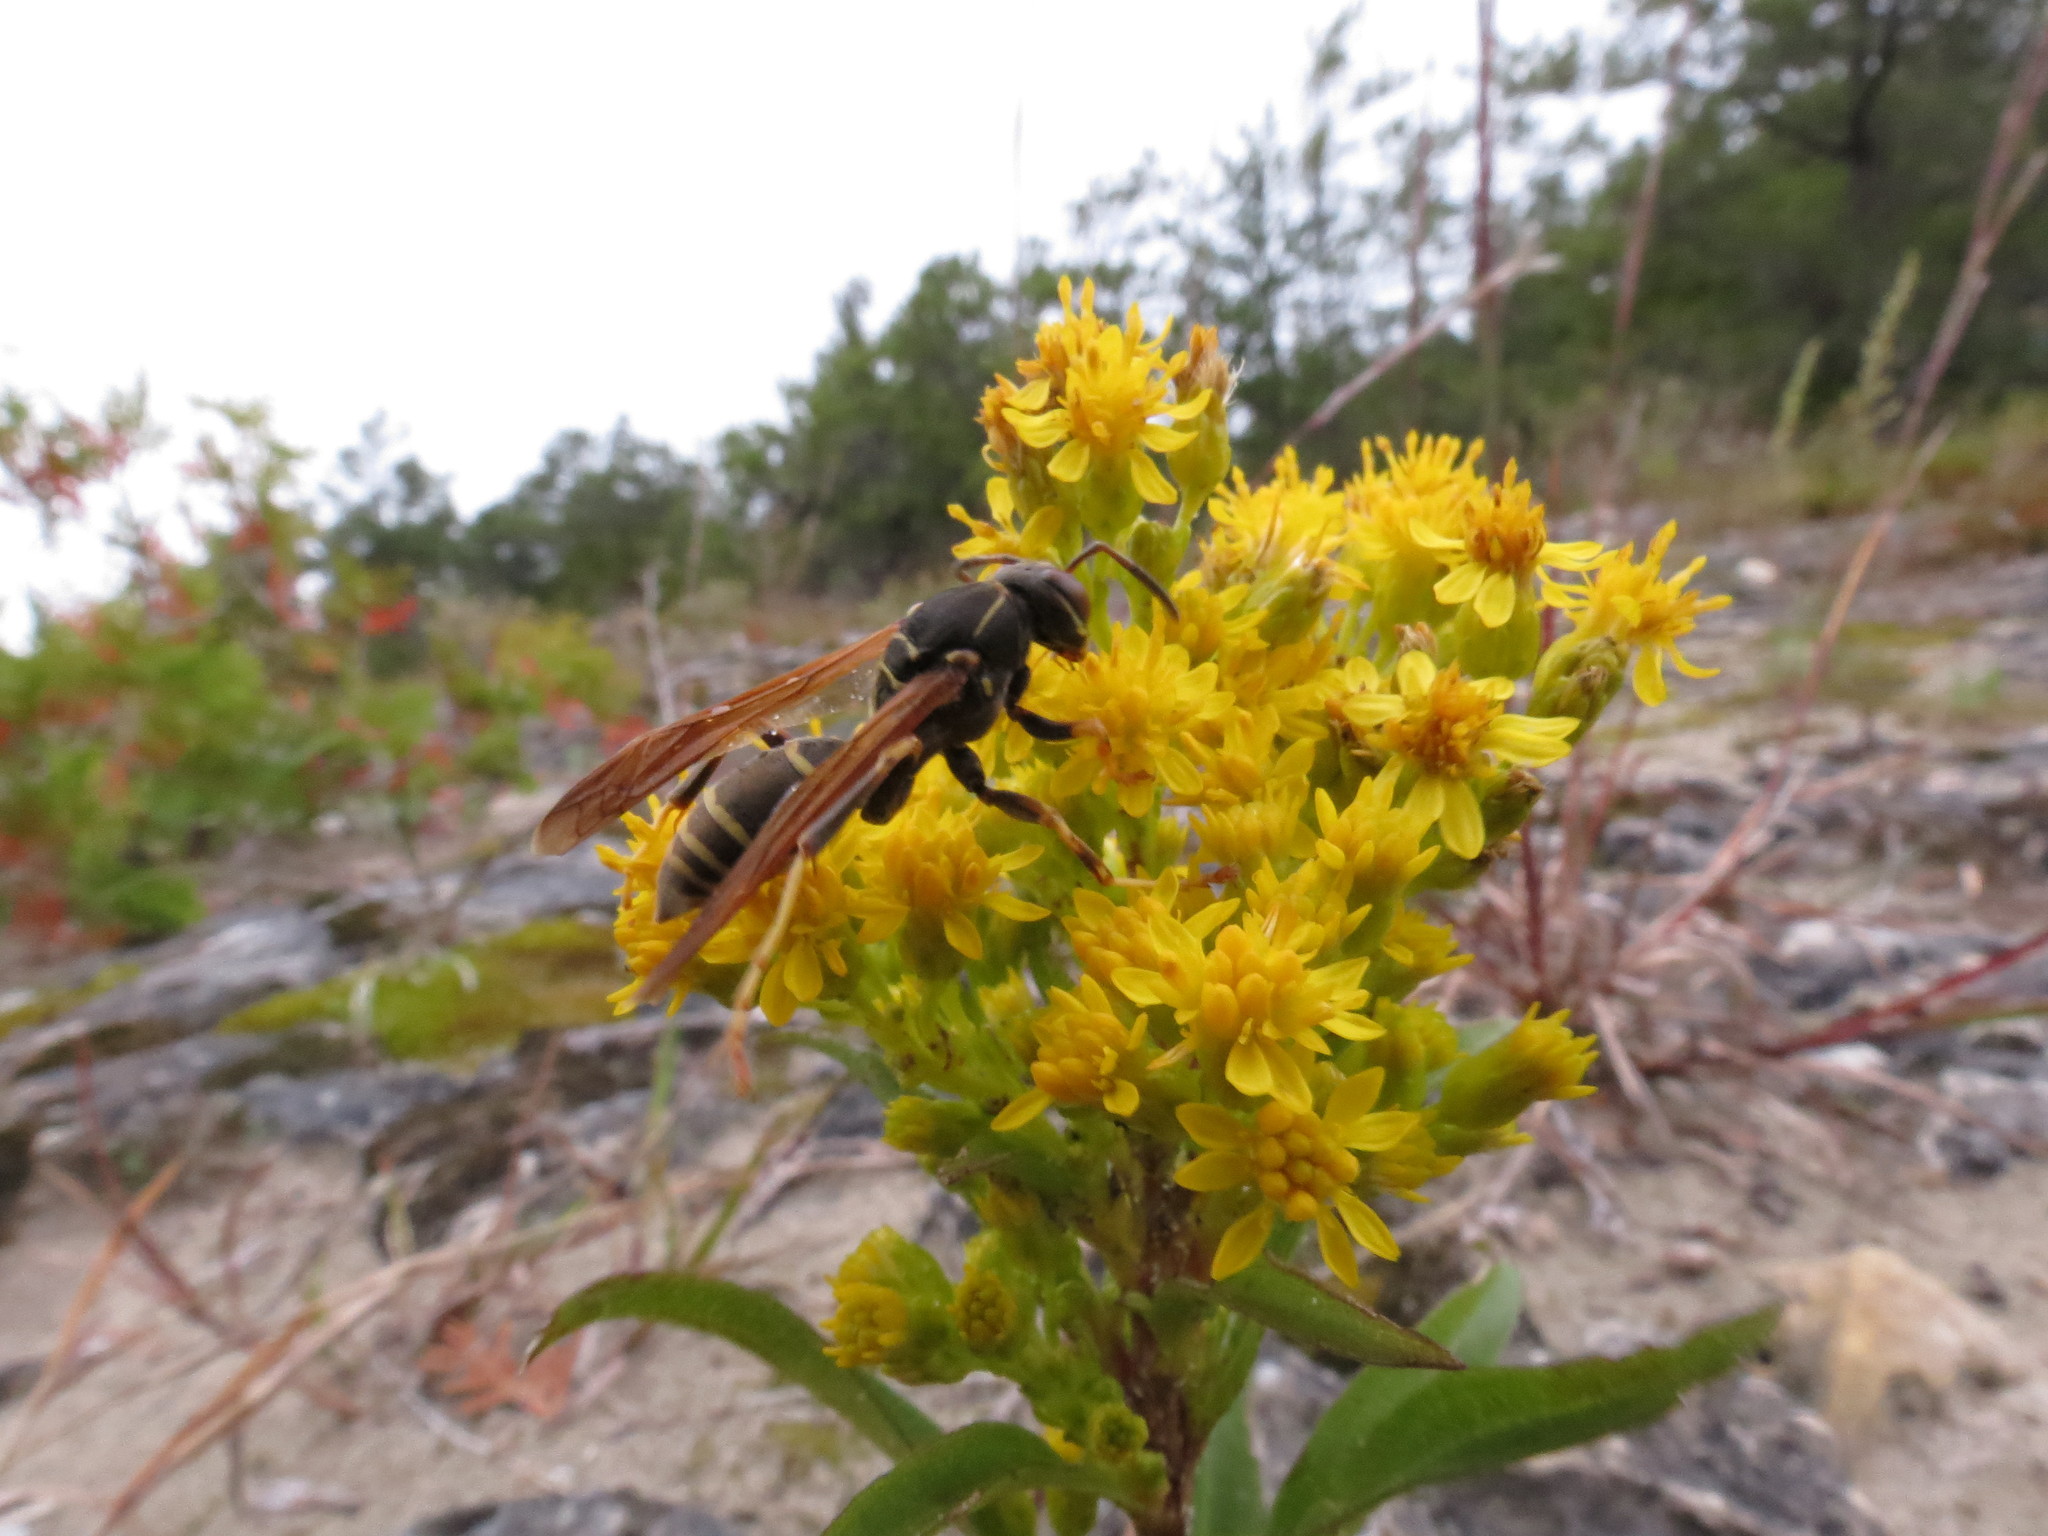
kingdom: Animalia
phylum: Arthropoda
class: Insecta
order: Hymenoptera
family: Eumenidae
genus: Polistes
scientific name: Polistes fuscatus
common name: Dark paper wasp
